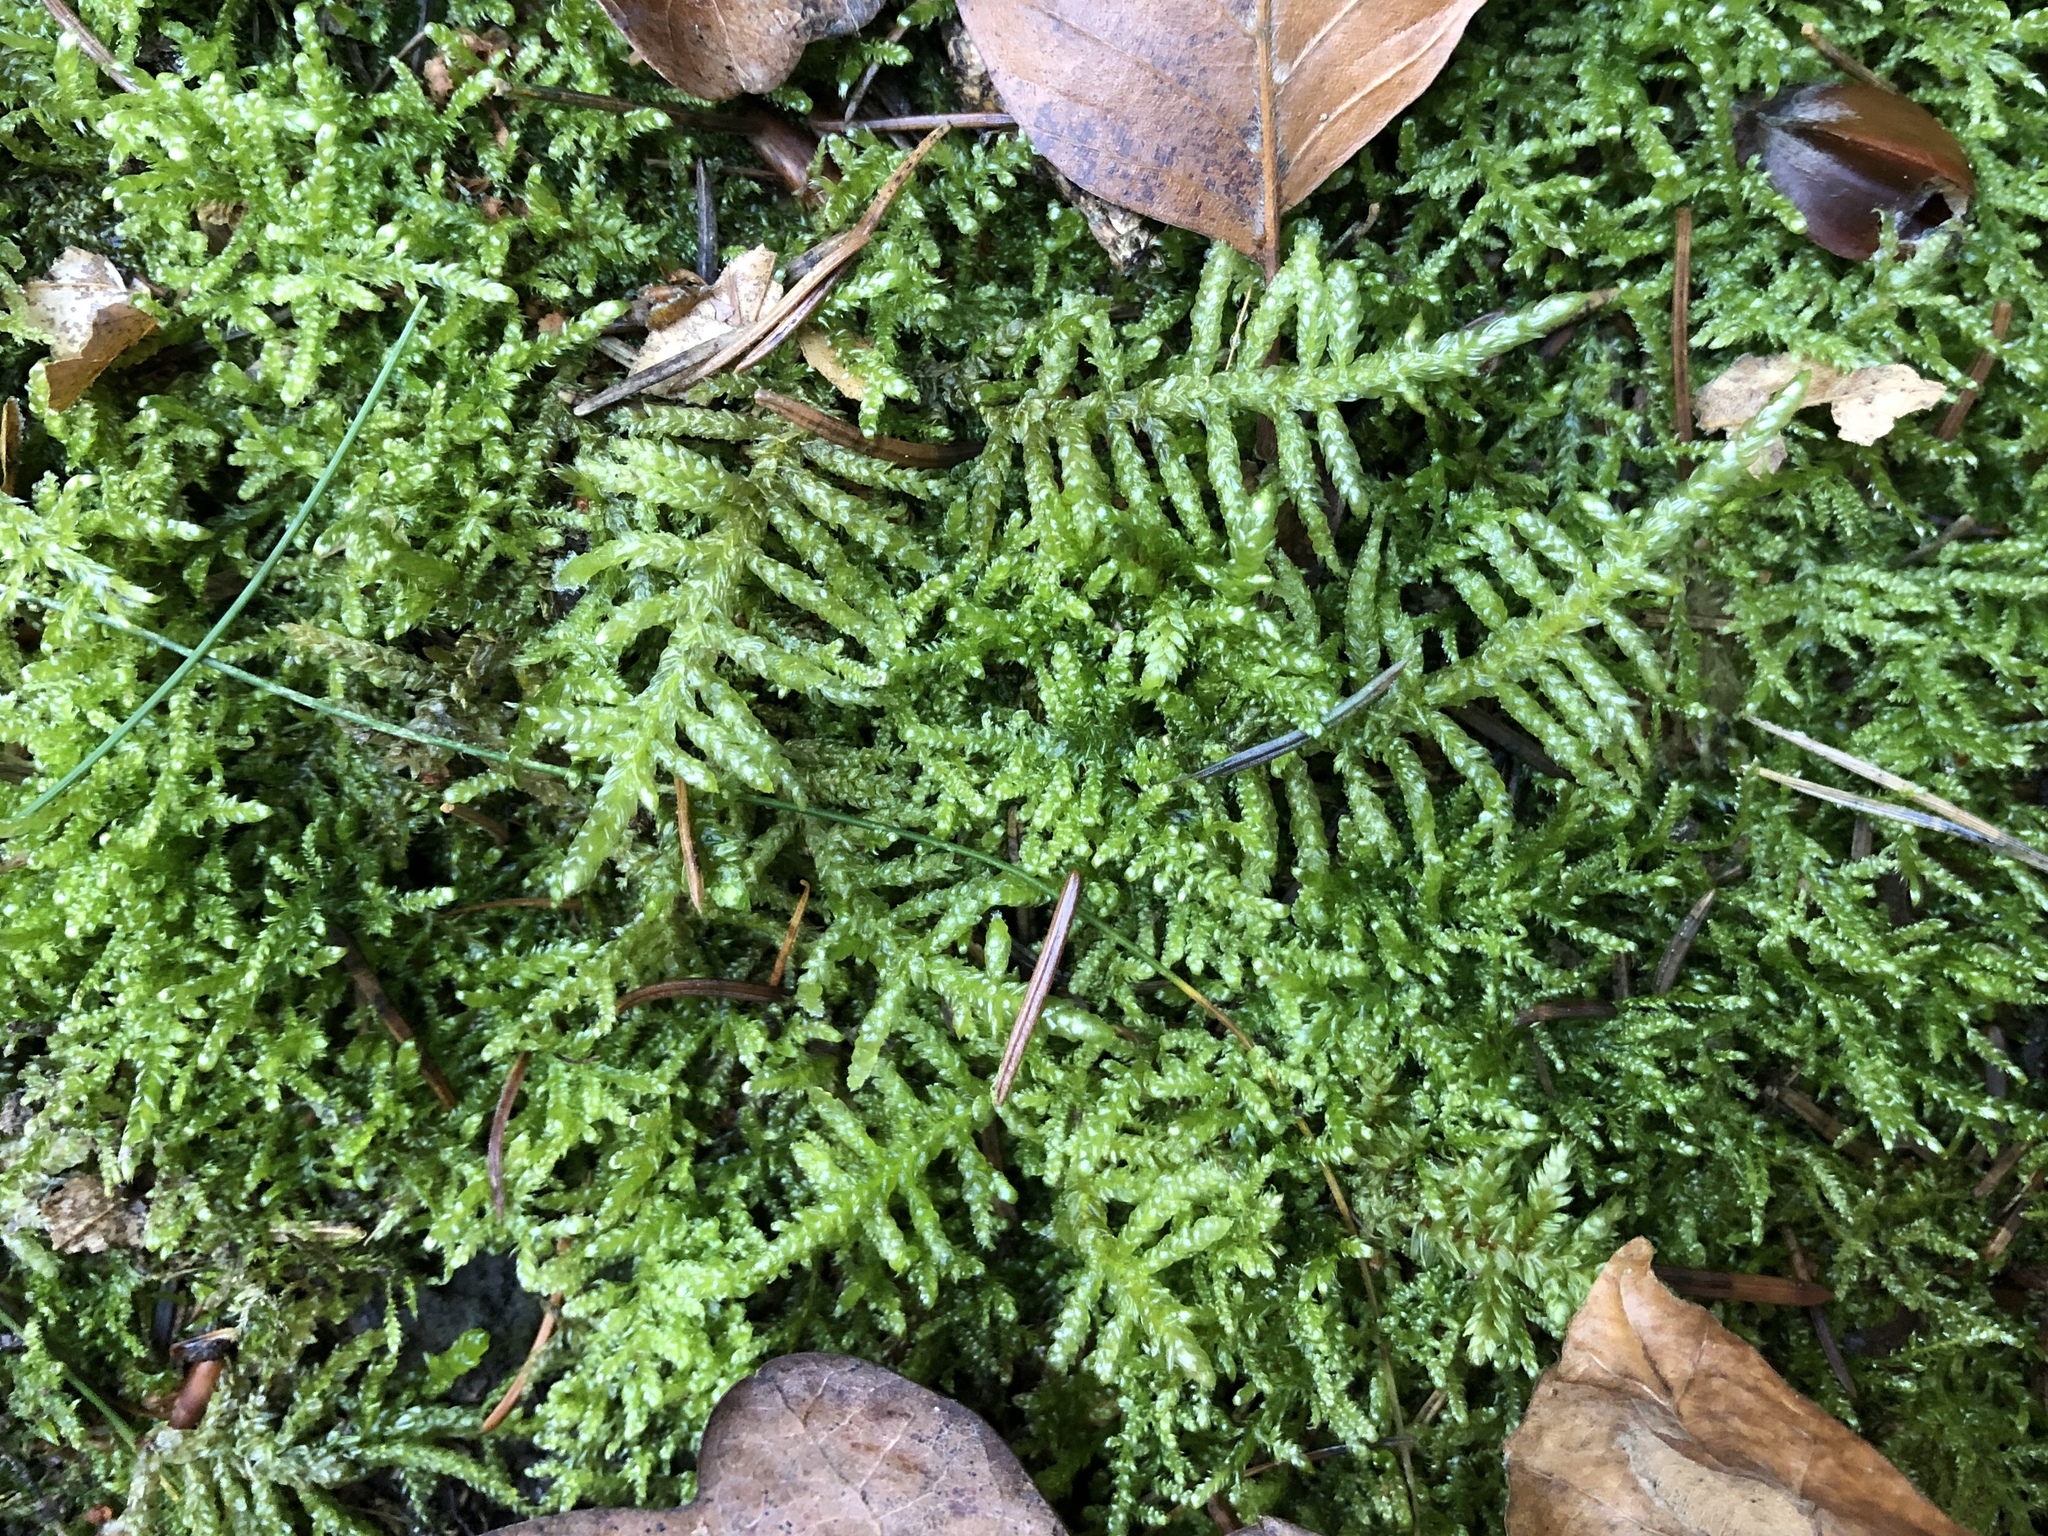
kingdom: Plantae
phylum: Bryophyta
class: Bryopsida
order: Hypnales
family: Brachytheciaceae
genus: Pseudoscleropodium
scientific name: Pseudoscleropodium purum
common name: Neat feather-moss
